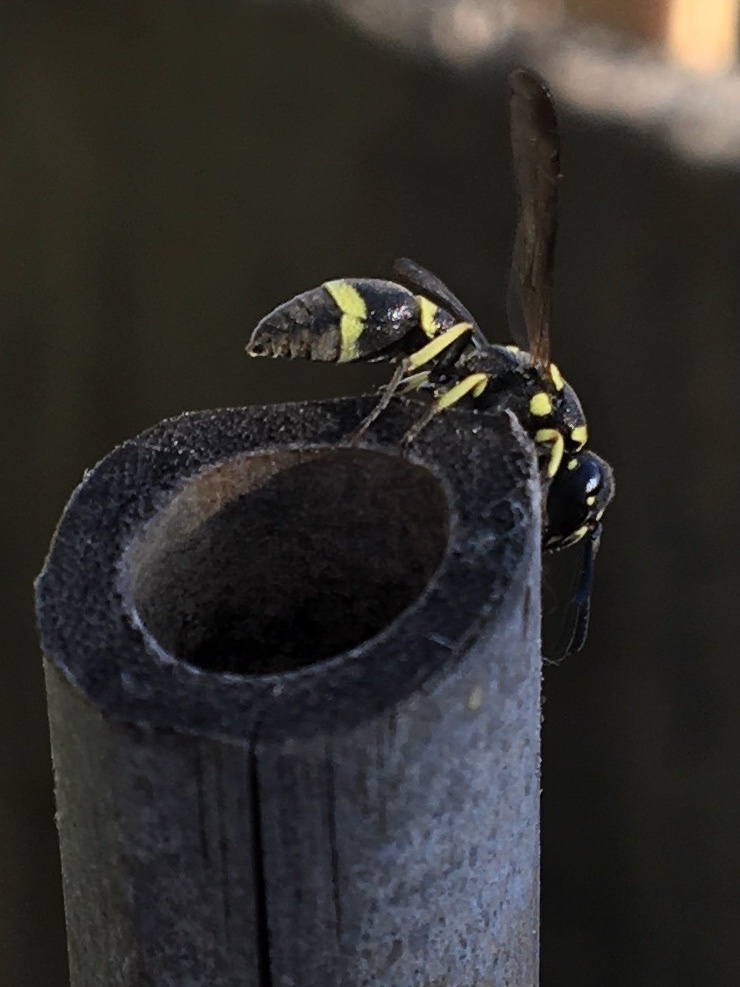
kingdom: Animalia
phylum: Arthropoda
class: Insecta
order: Hymenoptera
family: Eumenidae
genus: Parancistrocerus
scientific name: Parancistrocerus declivatus
